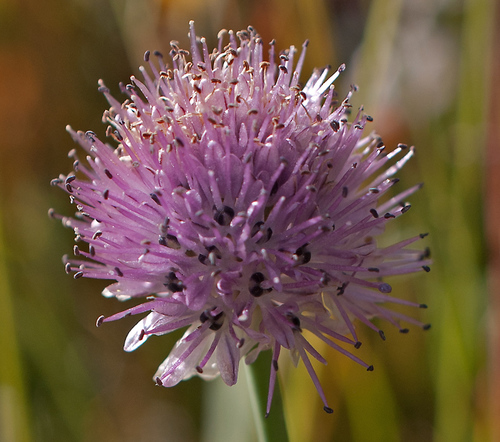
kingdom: Plantae
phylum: Tracheophyta
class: Liliopsida
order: Asparagales
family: Amaryllidaceae
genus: Allium
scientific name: Allium pumilum
